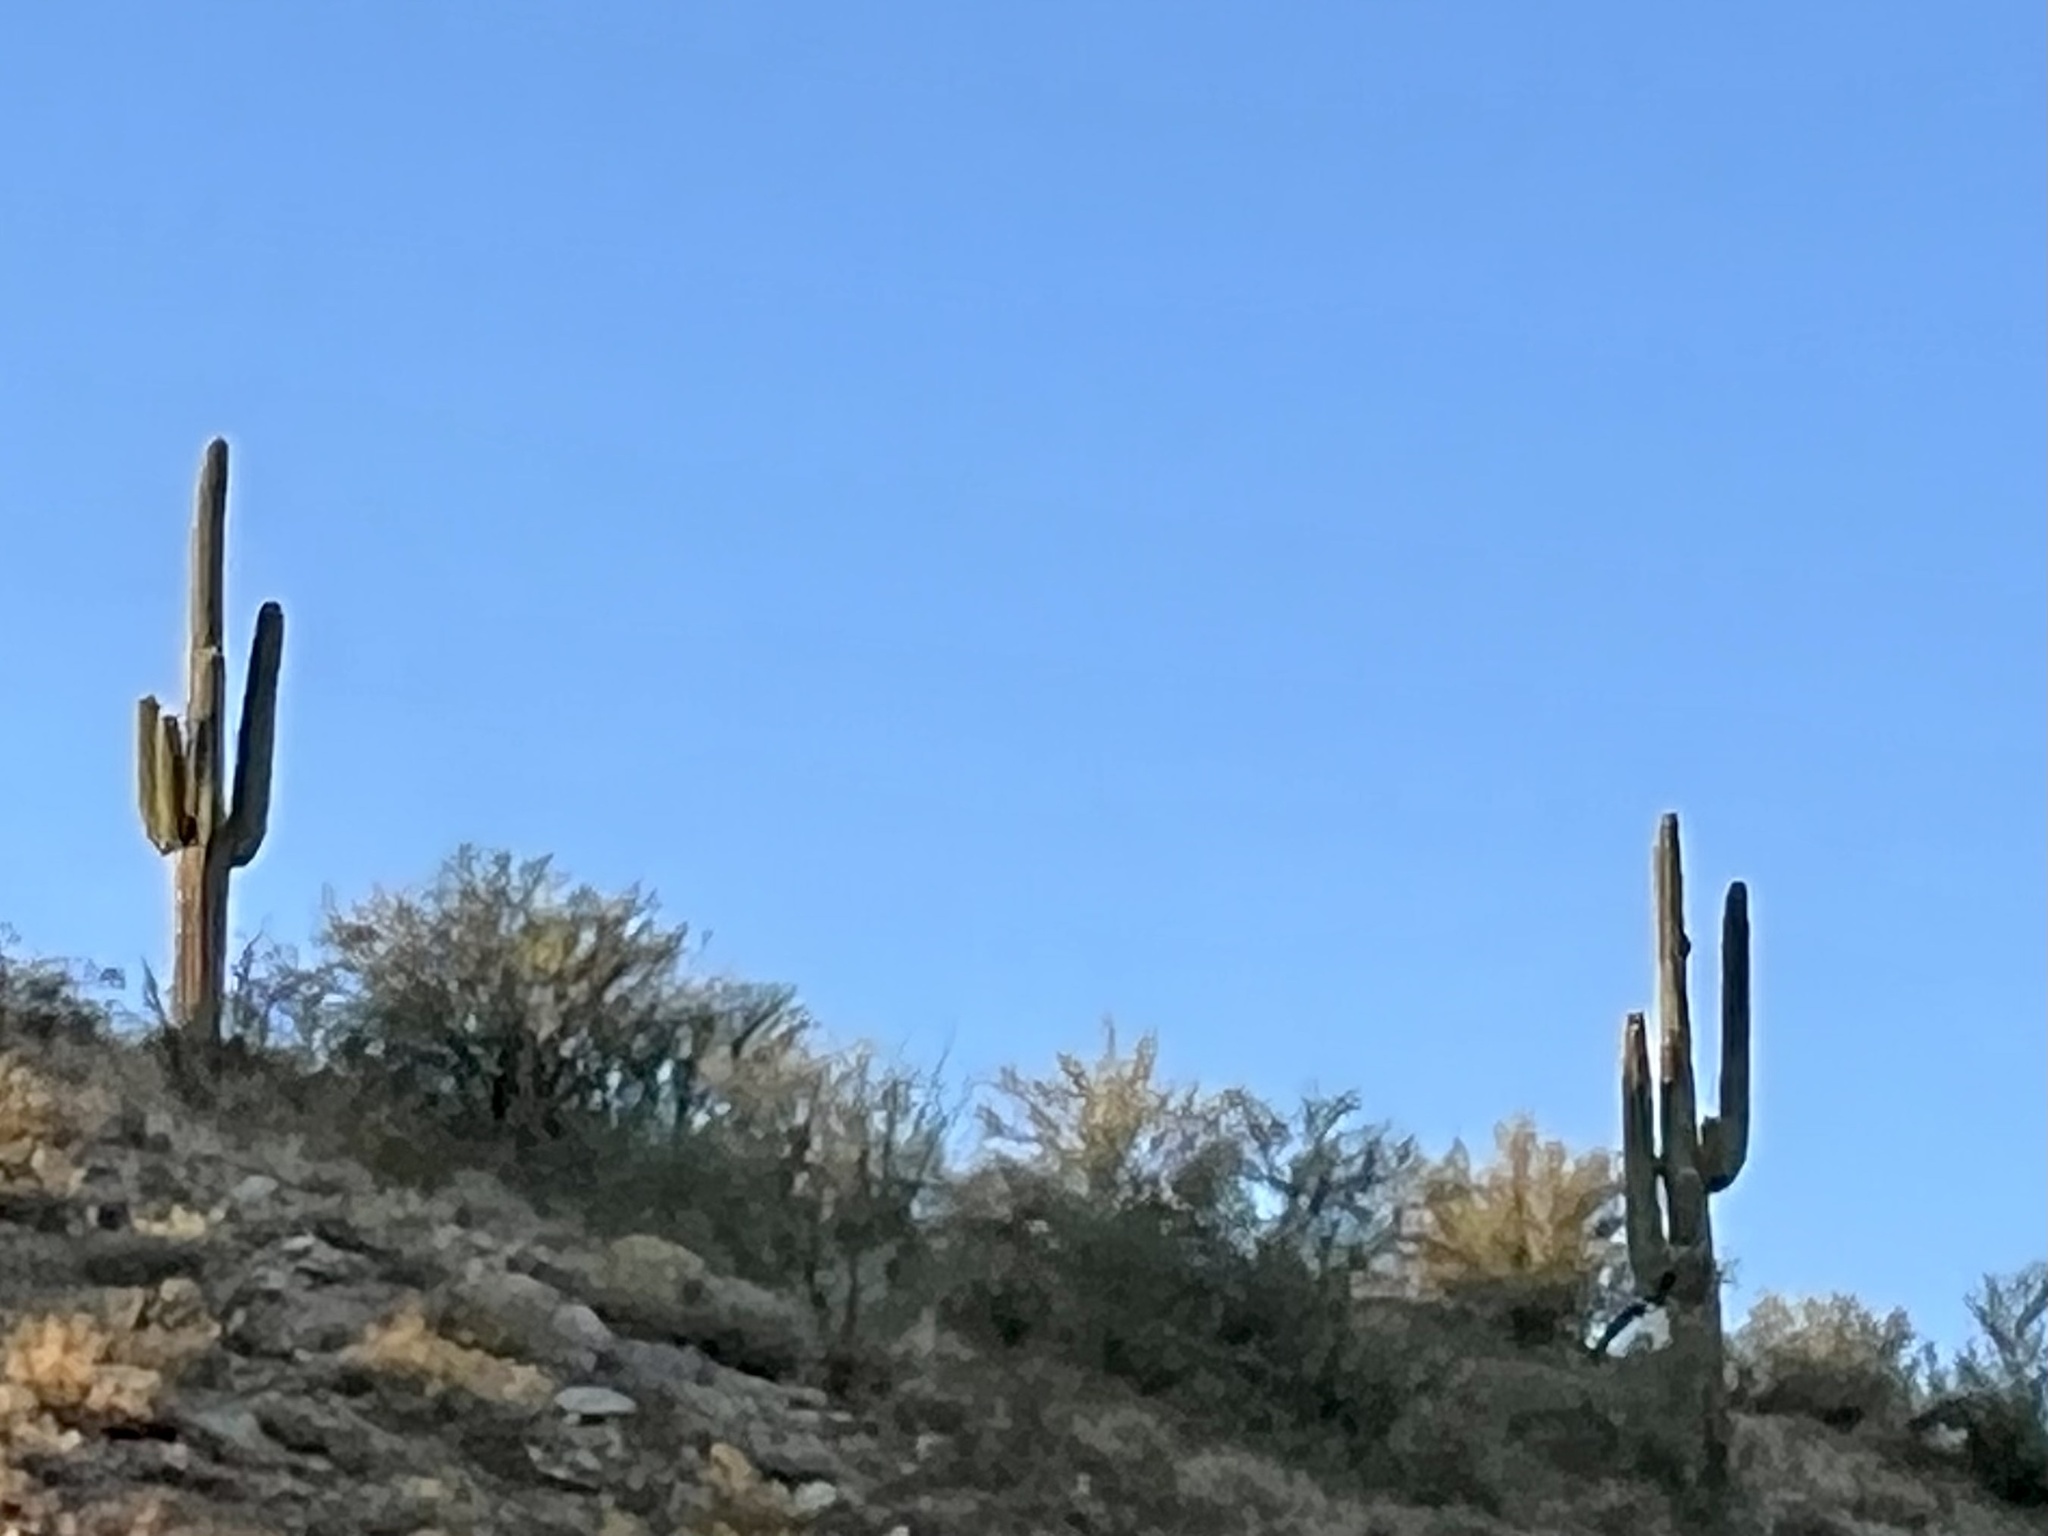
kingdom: Plantae
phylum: Tracheophyta
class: Magnoliopsida
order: Caryophyllales
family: Cactaceae
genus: Carnegiea
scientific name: Carnegiea gigantea
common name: Saguaro
